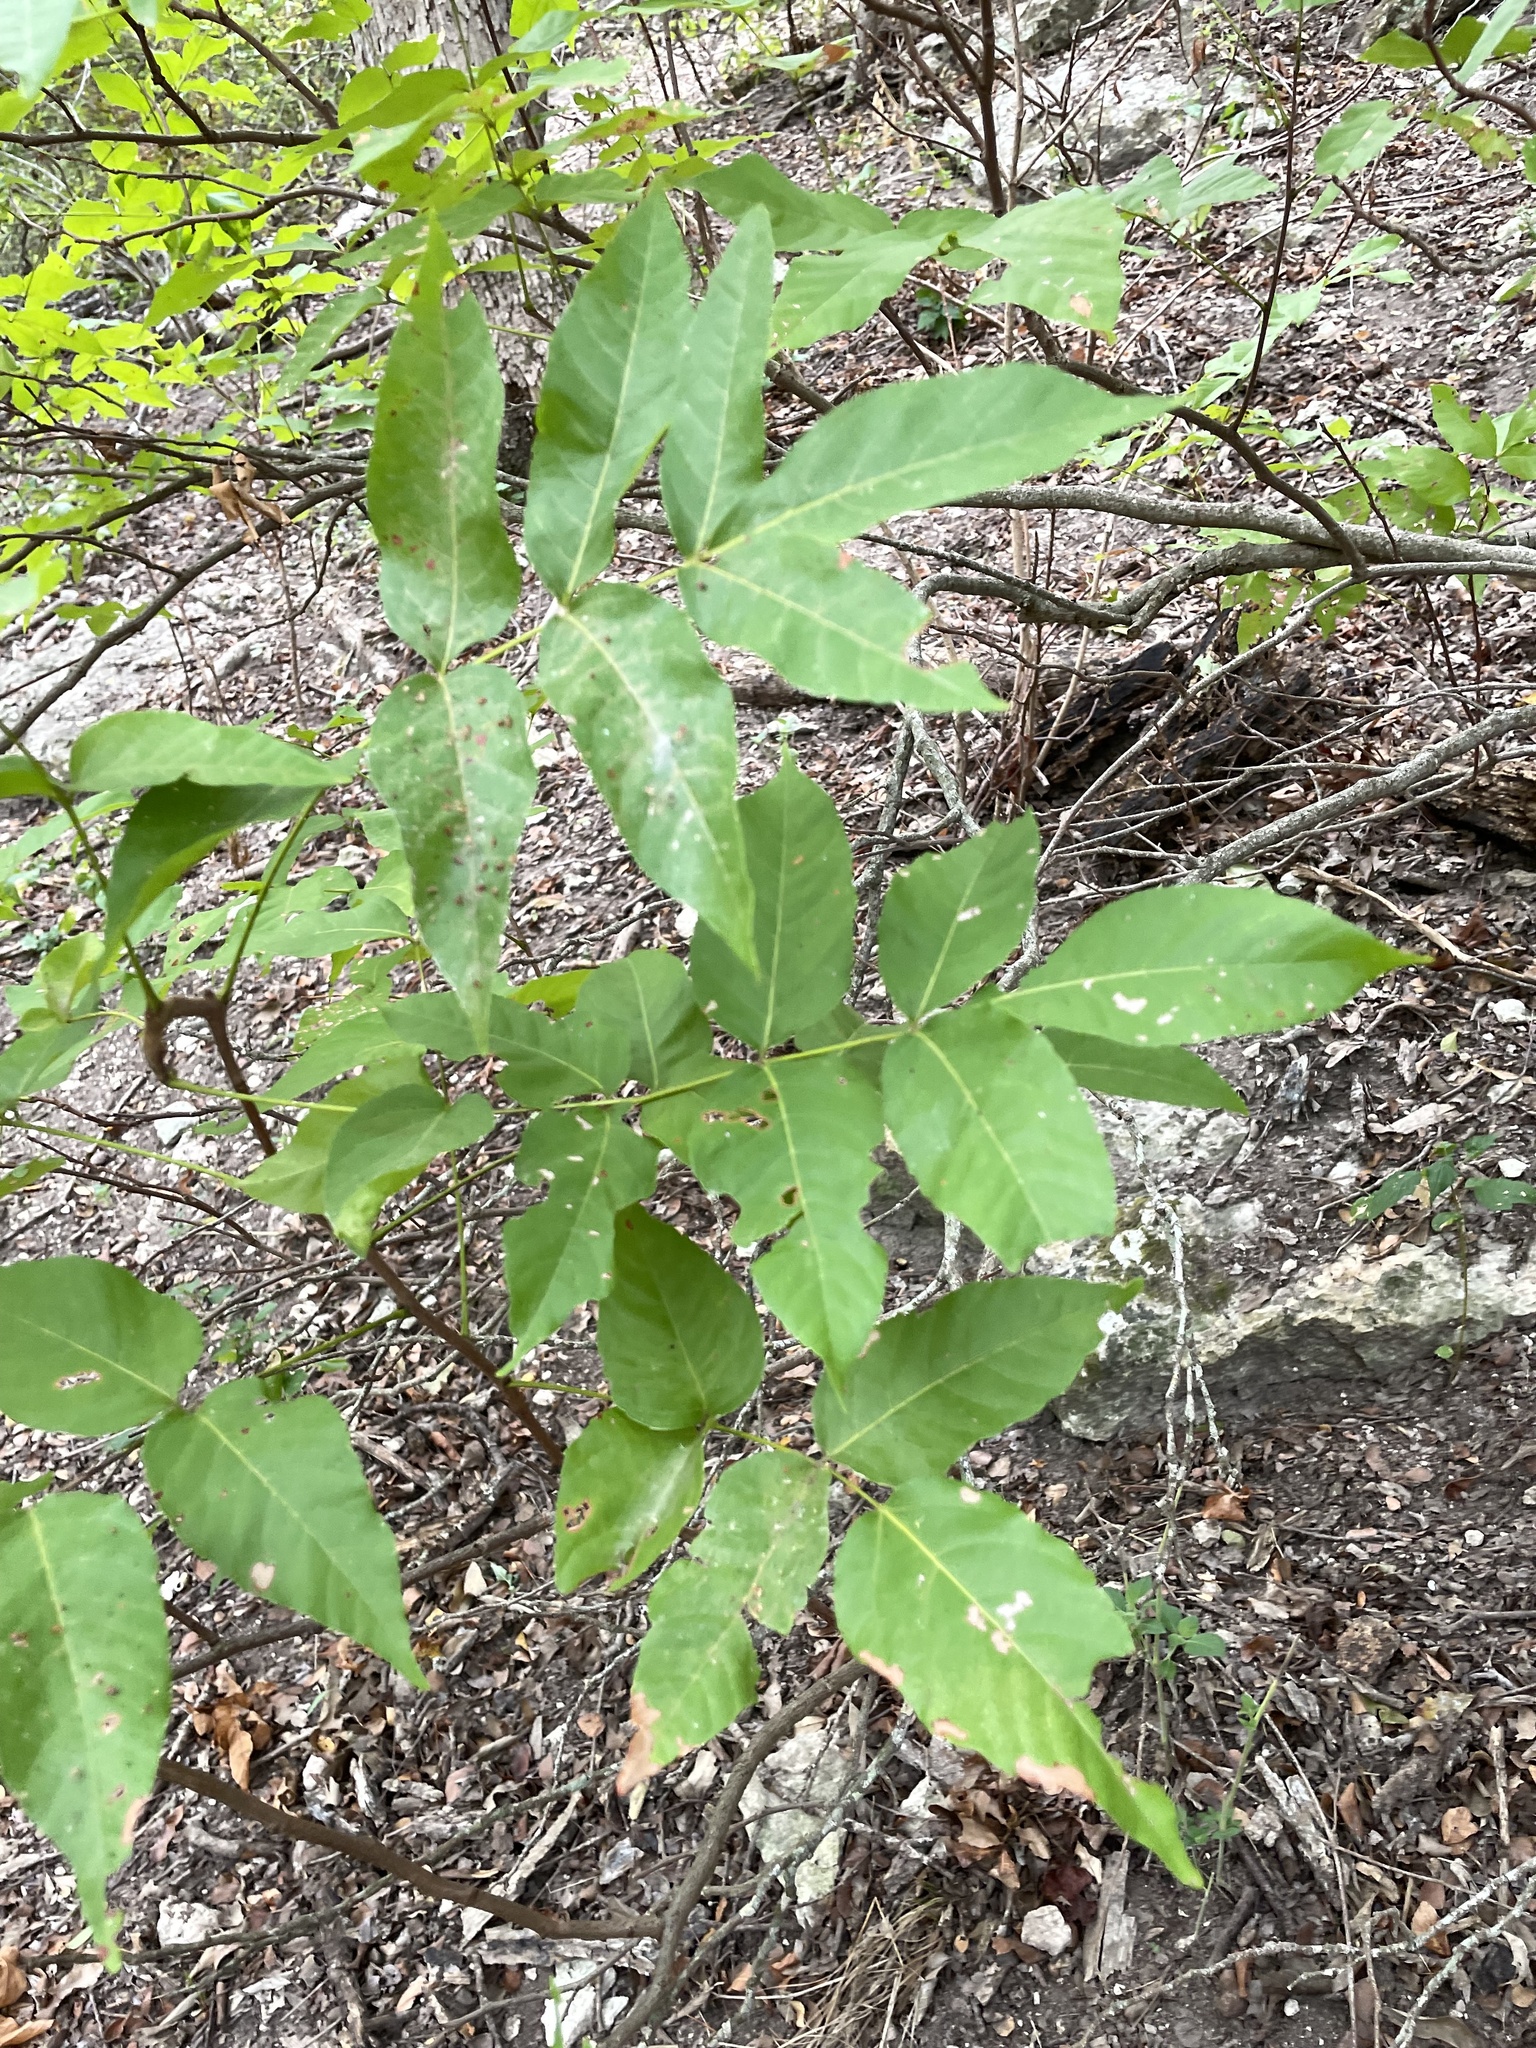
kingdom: Plantae
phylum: Tracheophyta
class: Magnoliopsida
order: Sapindales
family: Sapindaceae
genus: Ungnadia
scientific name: Ungnadia speciosa
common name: Texas-buckeye
